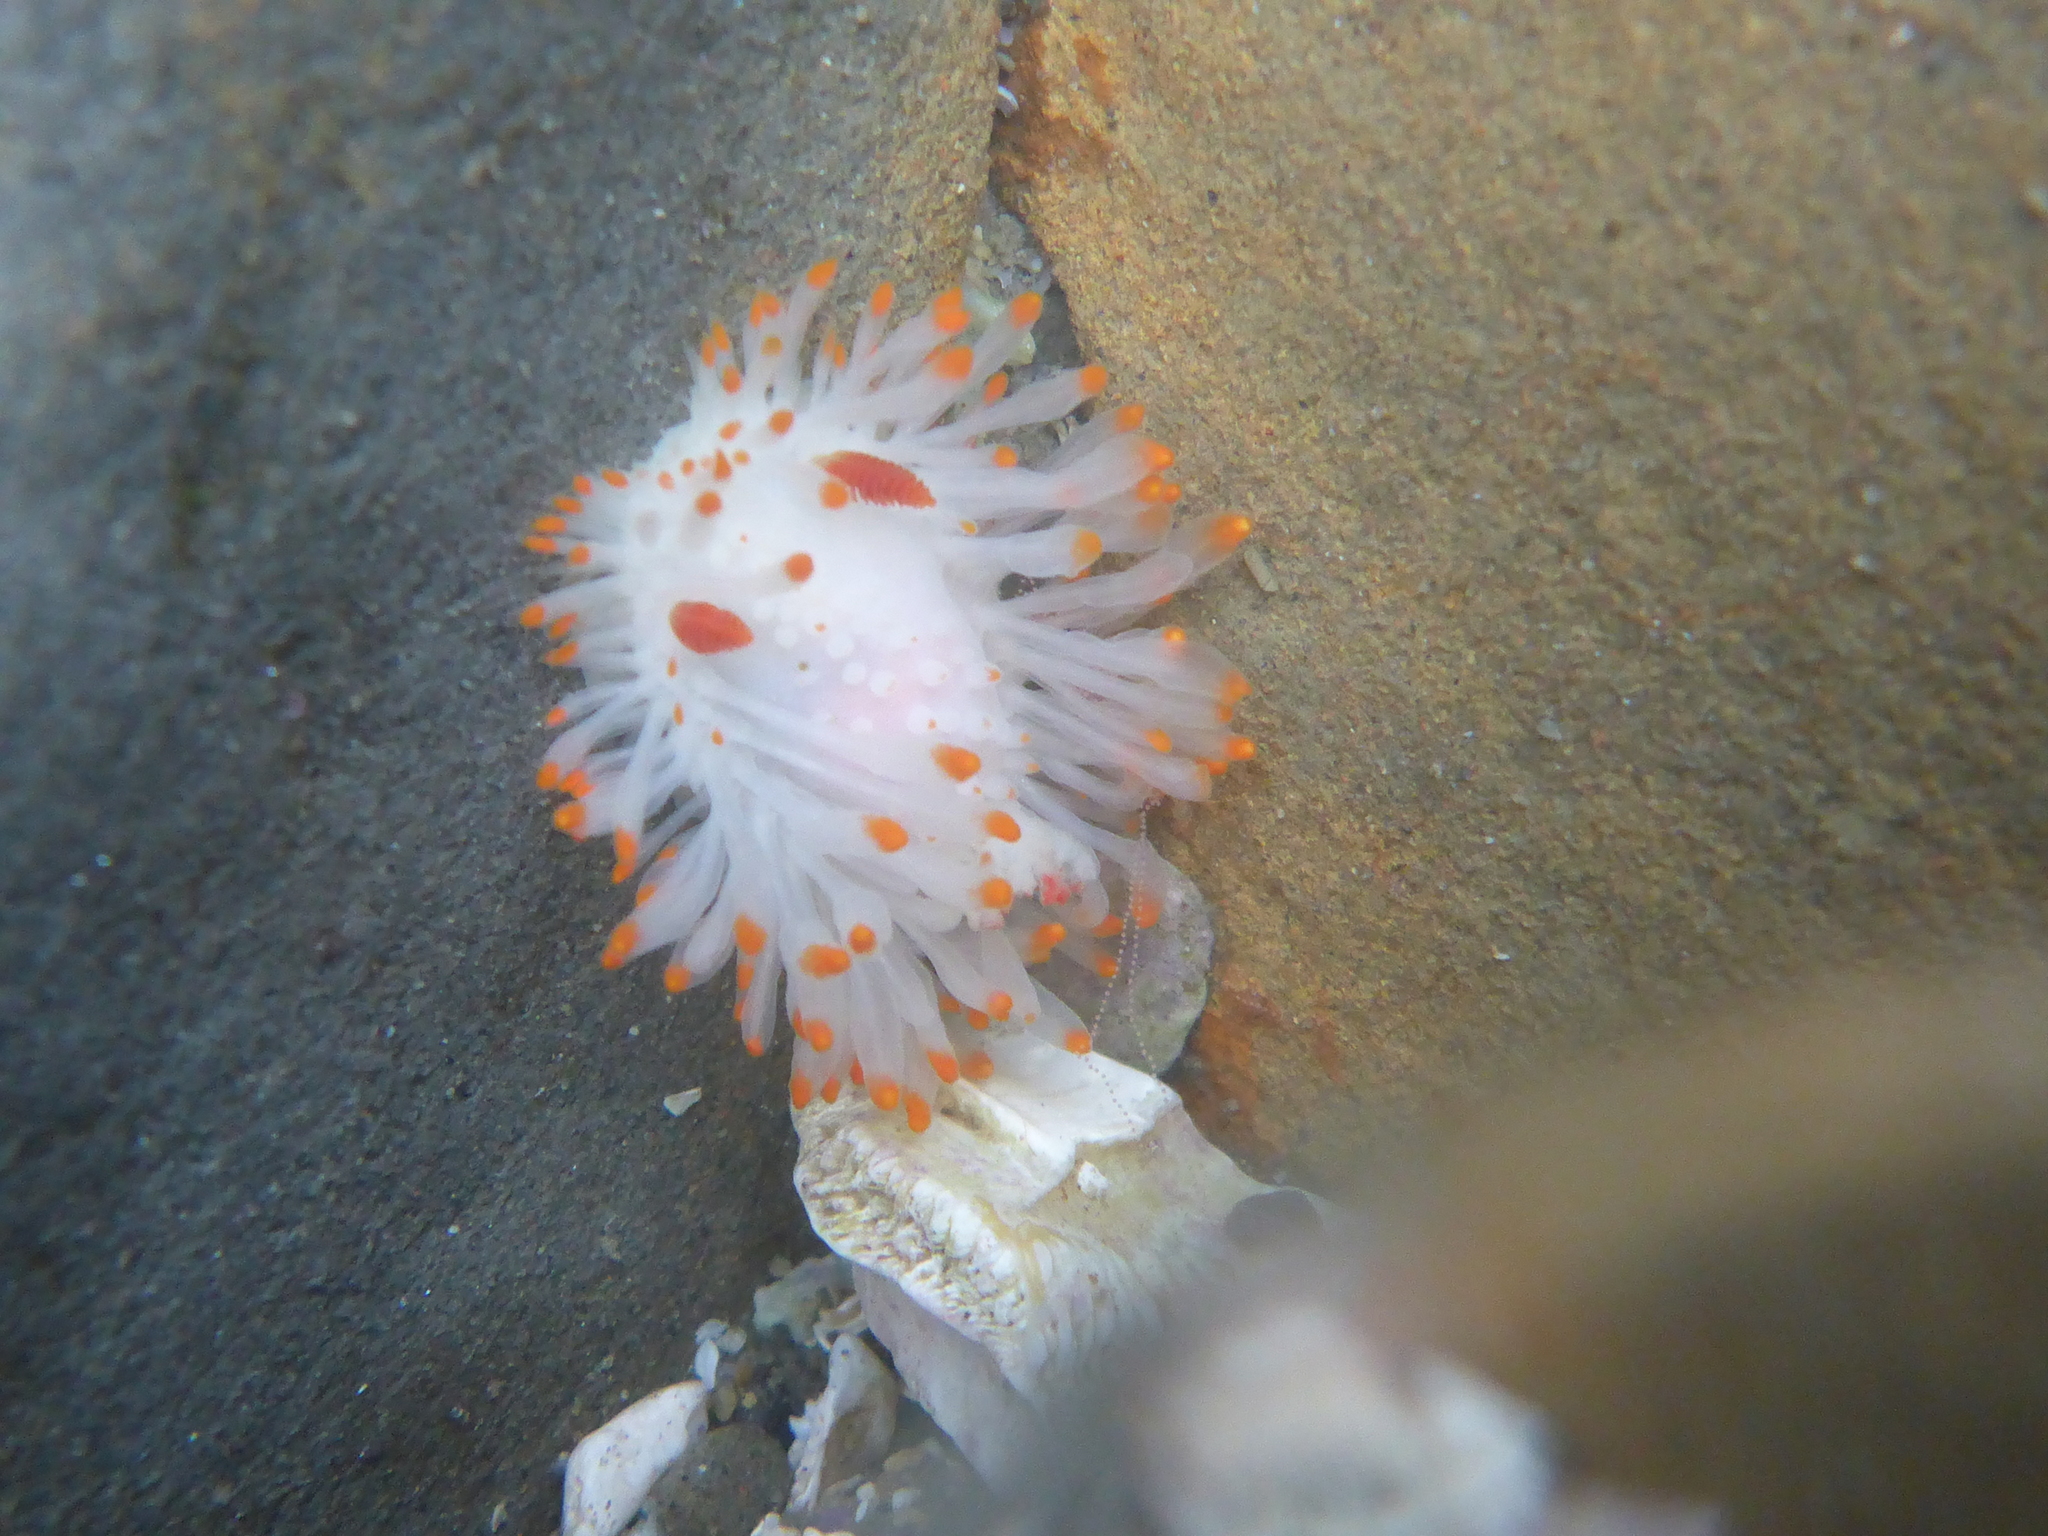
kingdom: Animalia
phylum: Mollusca
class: Gastropoda
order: Nudibranchia
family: Polyceridae
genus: Limacia
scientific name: Limacia cockerelli
